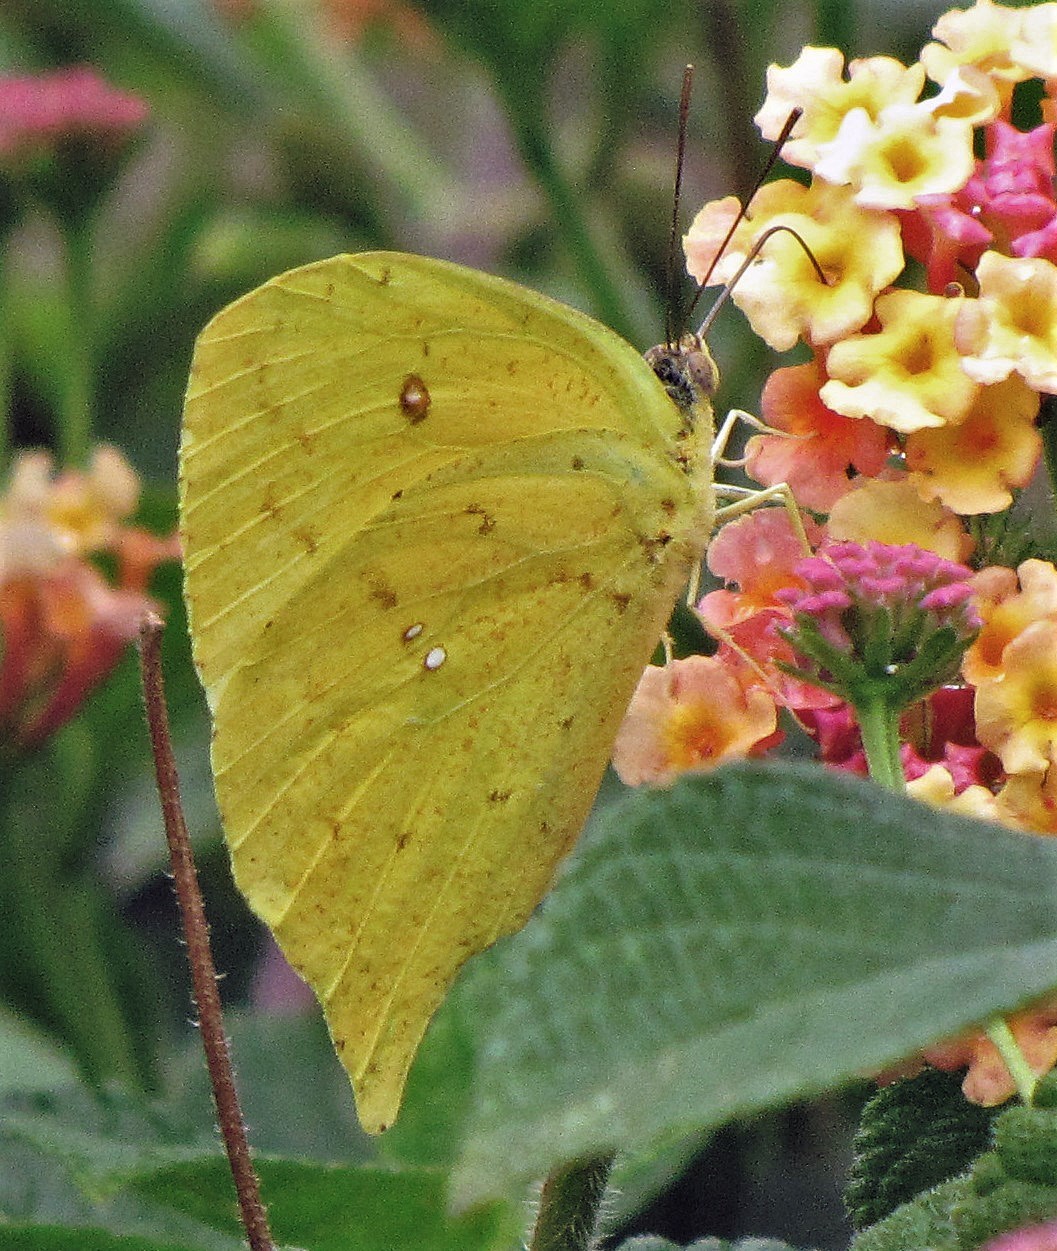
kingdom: Animalia
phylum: Arthropoda
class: Insecta
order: Lepidoptera
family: Pieridae
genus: Phoebis
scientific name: Phoebis neocypris
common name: Tailed sulphur
